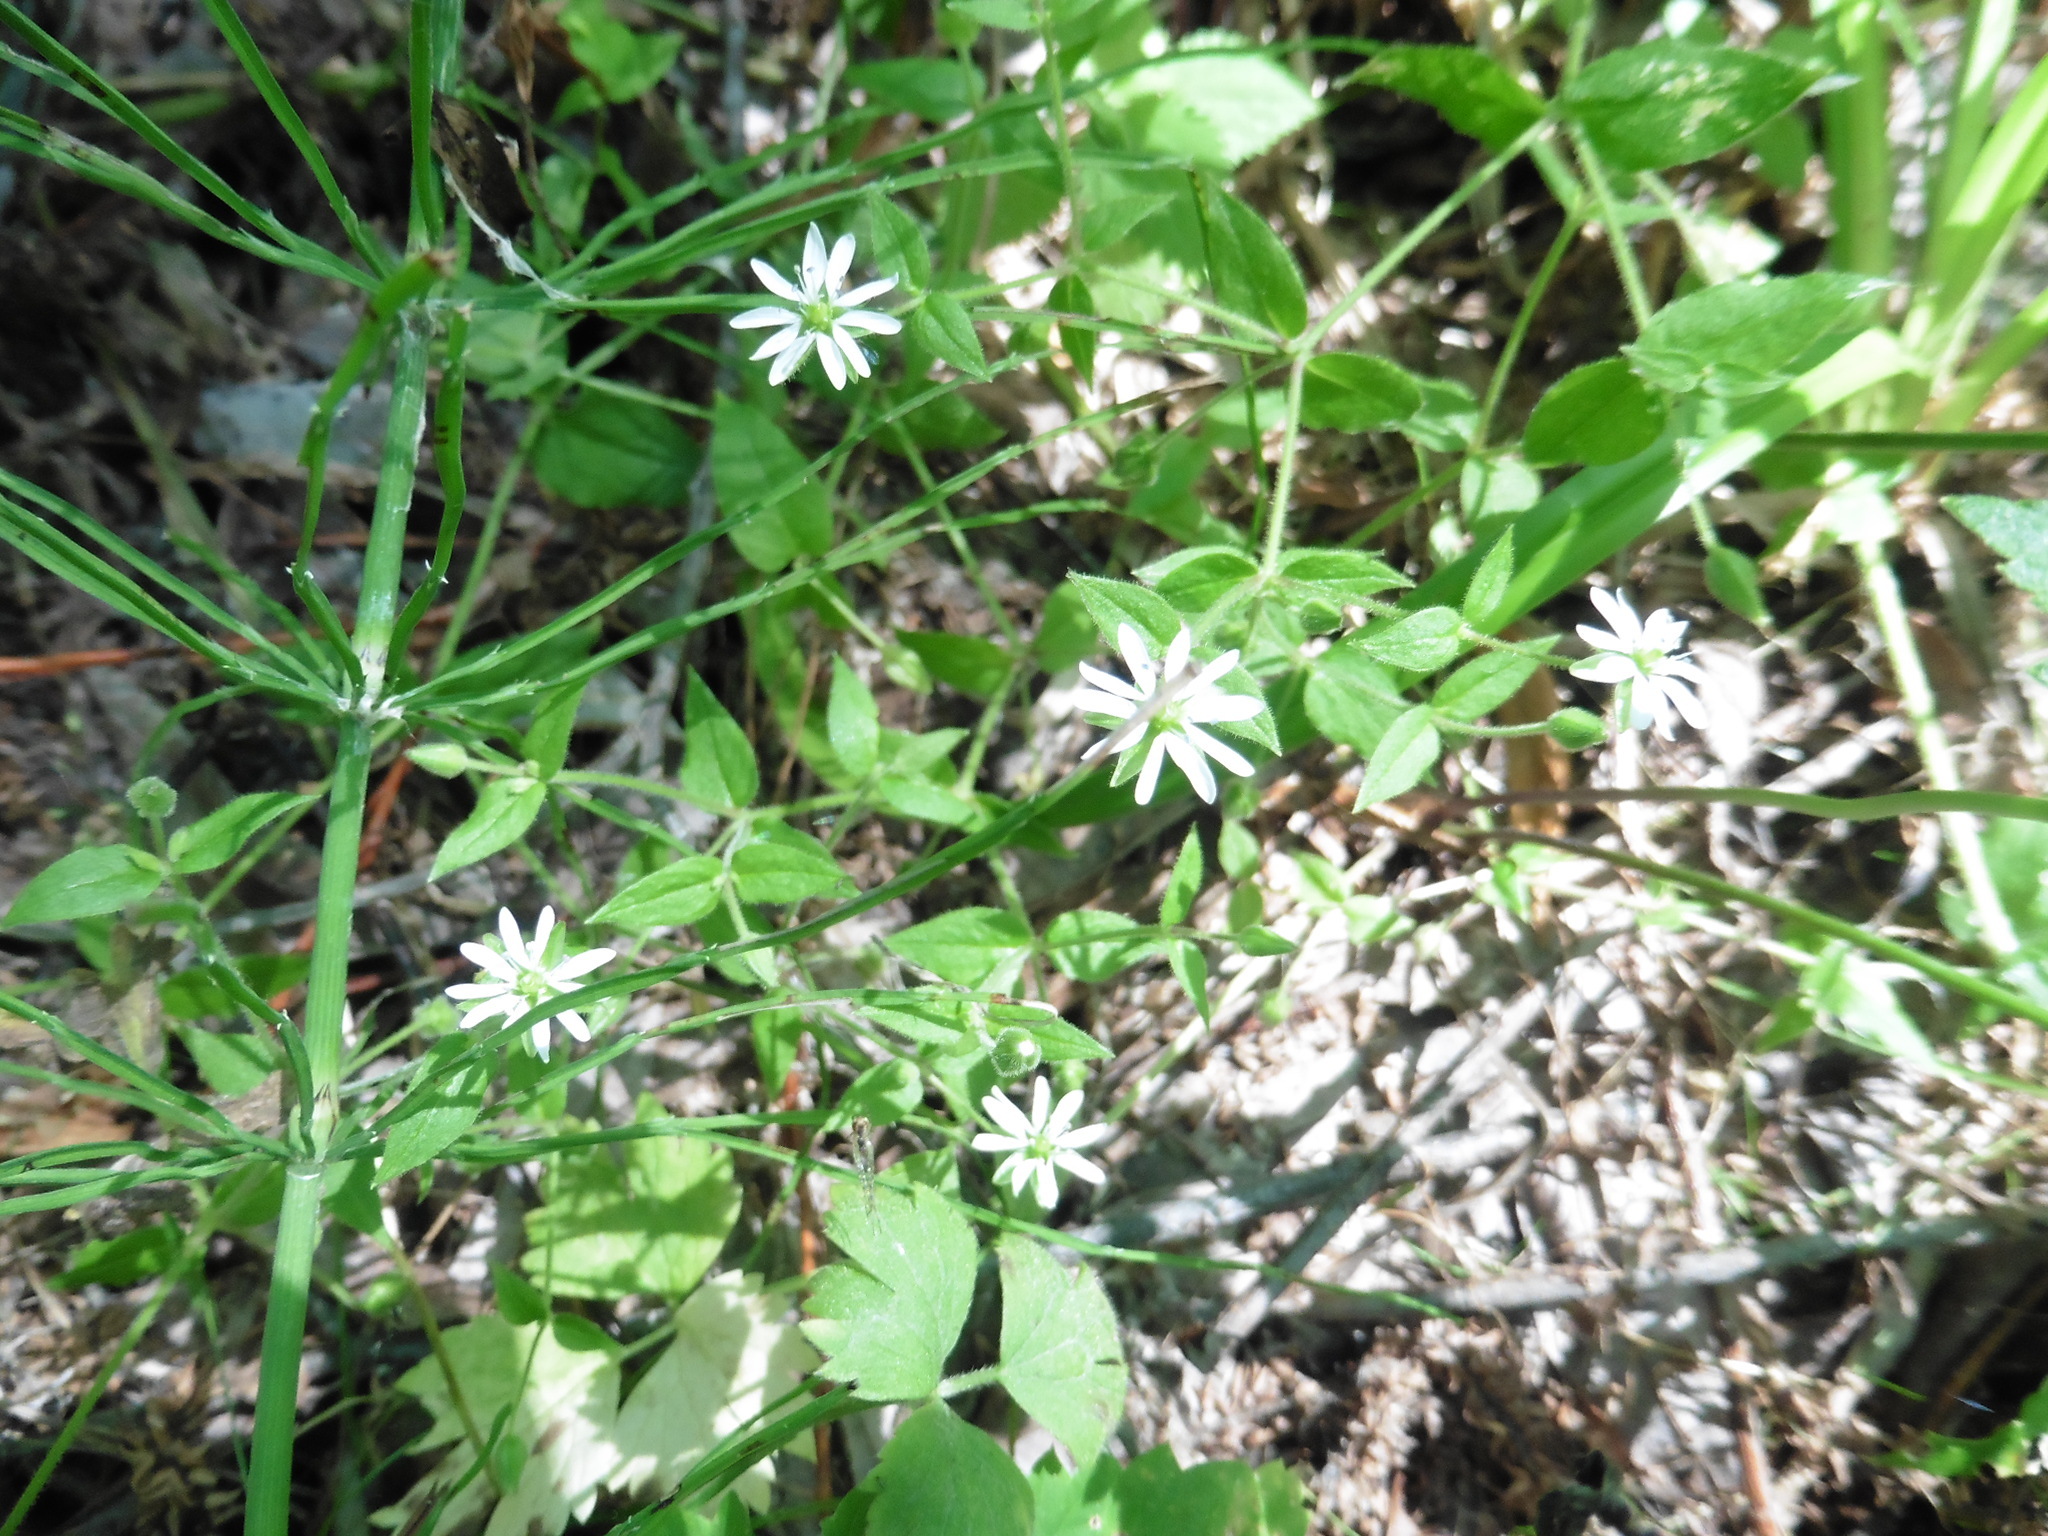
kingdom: Plantae
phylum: Tracheophyta
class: Magnoliopsida
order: Caryophyllales
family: Caryophyllaceae
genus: Stellaria
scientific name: Stellaria aquatica
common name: Water chickweed
